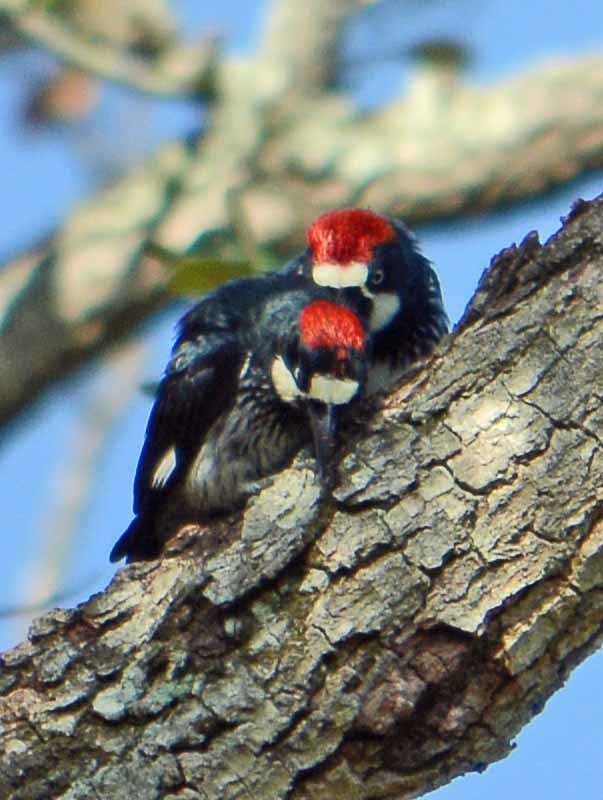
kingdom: Animalia
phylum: Chordata
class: Aves
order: Piciformes
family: Picidae
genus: Melanerpes
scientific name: Melanerpes formicivorus
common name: Acorn woodpecker
